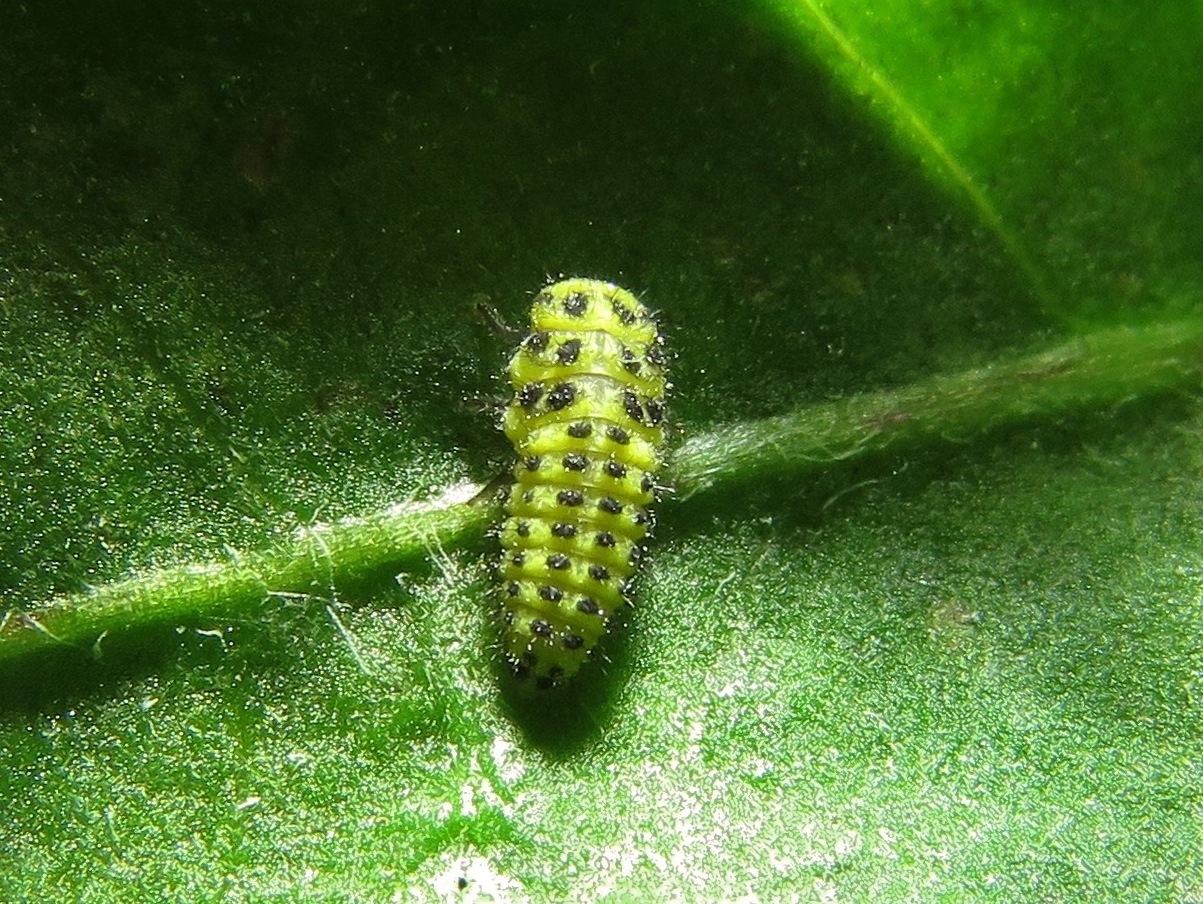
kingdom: Animalia
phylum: Arthropoda
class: Insecta
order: Coleoptera
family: Coccinellidae
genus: Psyllobora
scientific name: Psyllobora vigintiduopunctata
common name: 22-spot ladybird
